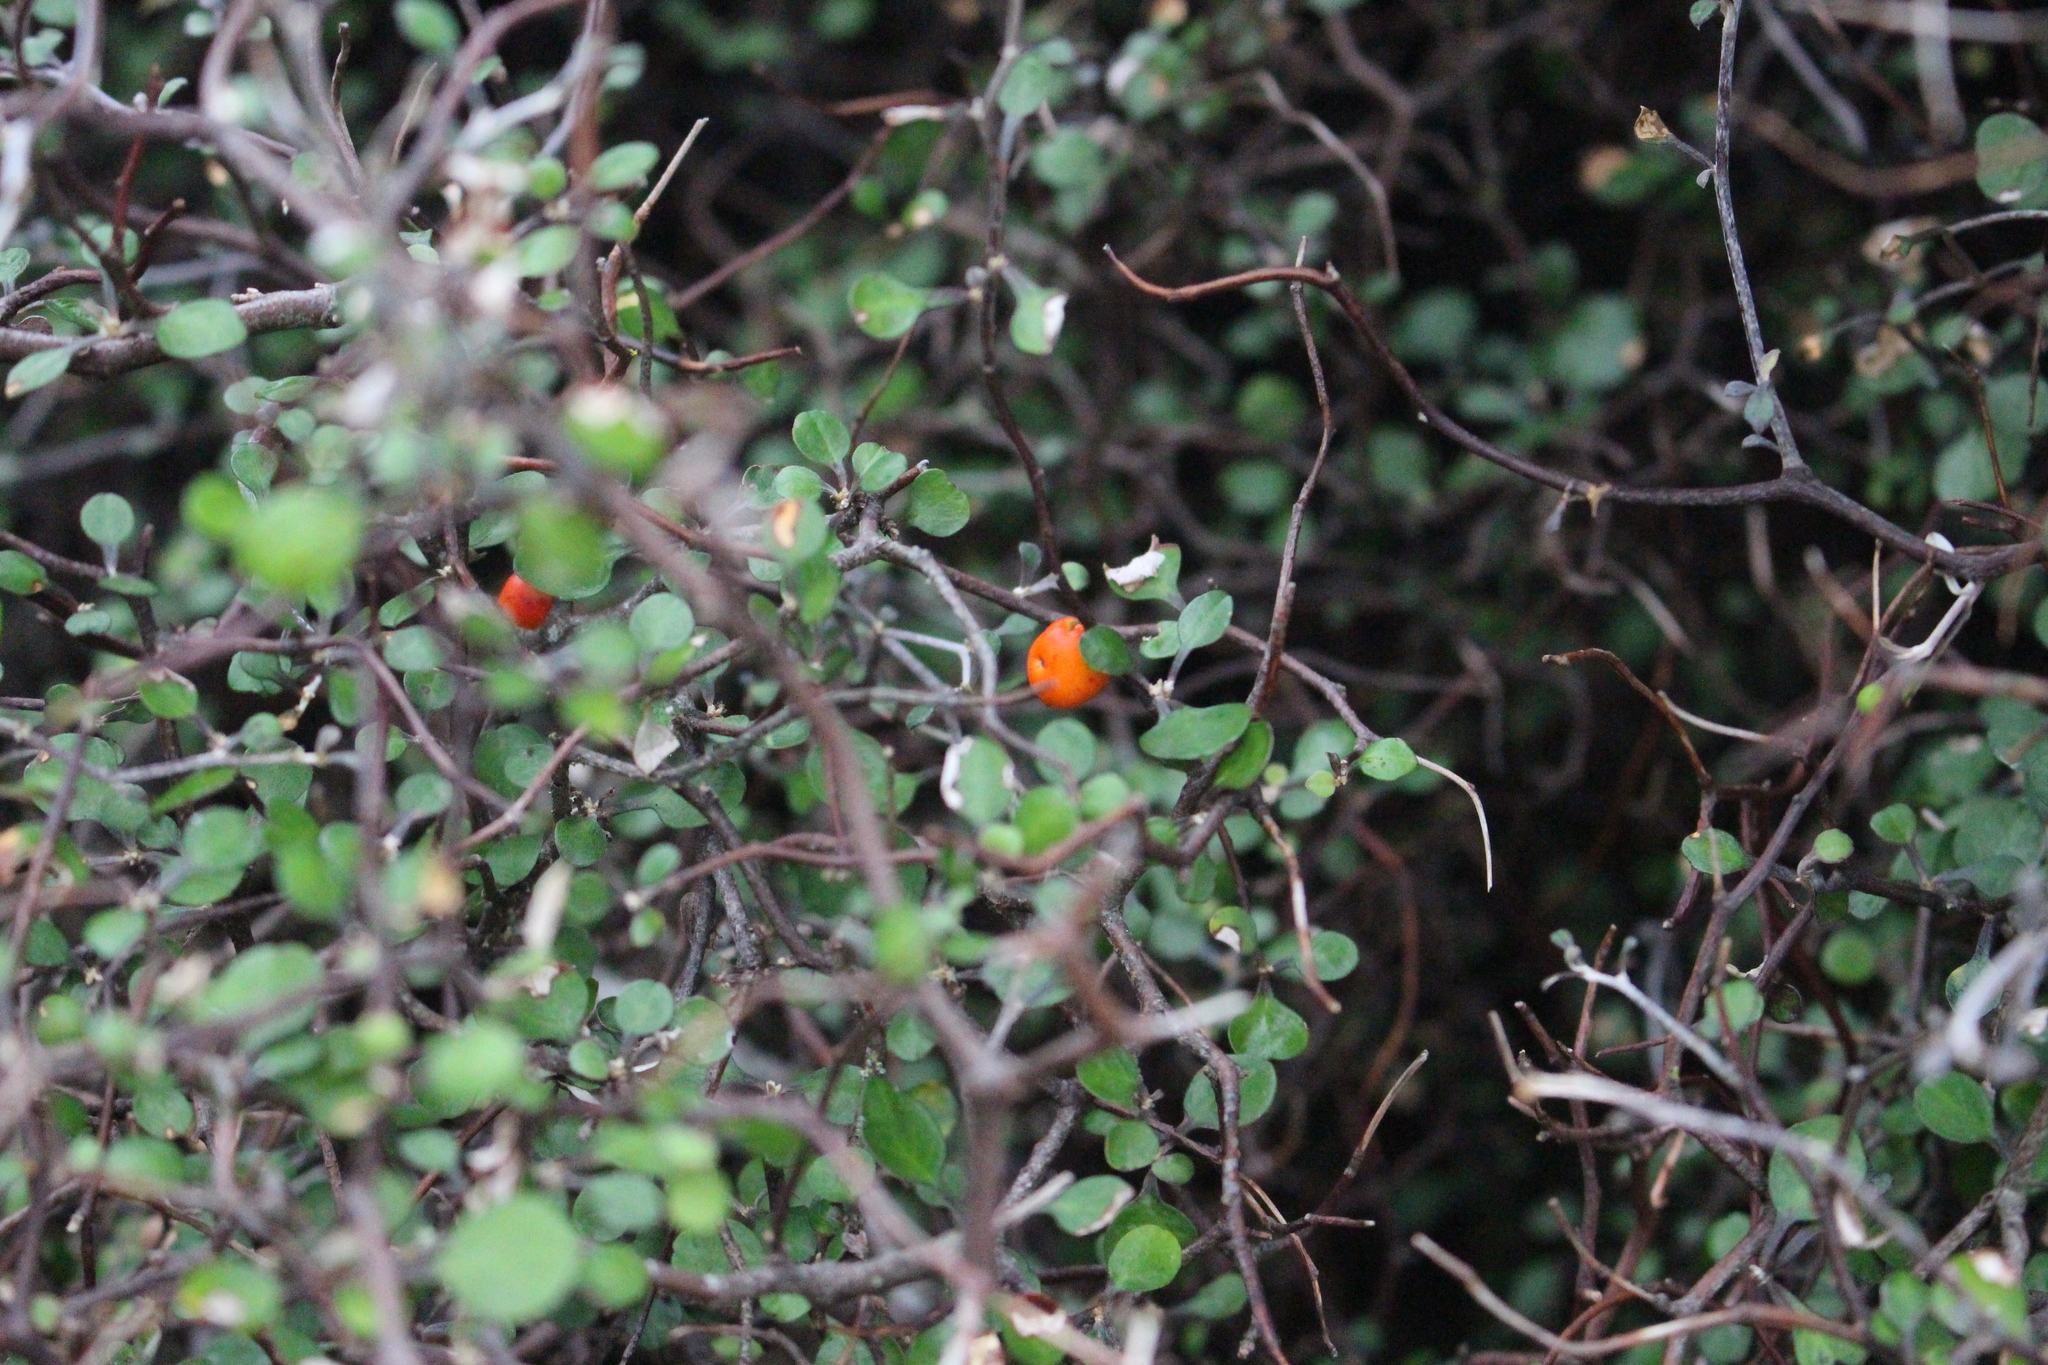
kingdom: Plantae
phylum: Tracheophyta
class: Magnoliopsida
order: Asterales
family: Argophyllaceae
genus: Corokia
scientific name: Corokia cotoneaster
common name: Wire nettingbush
